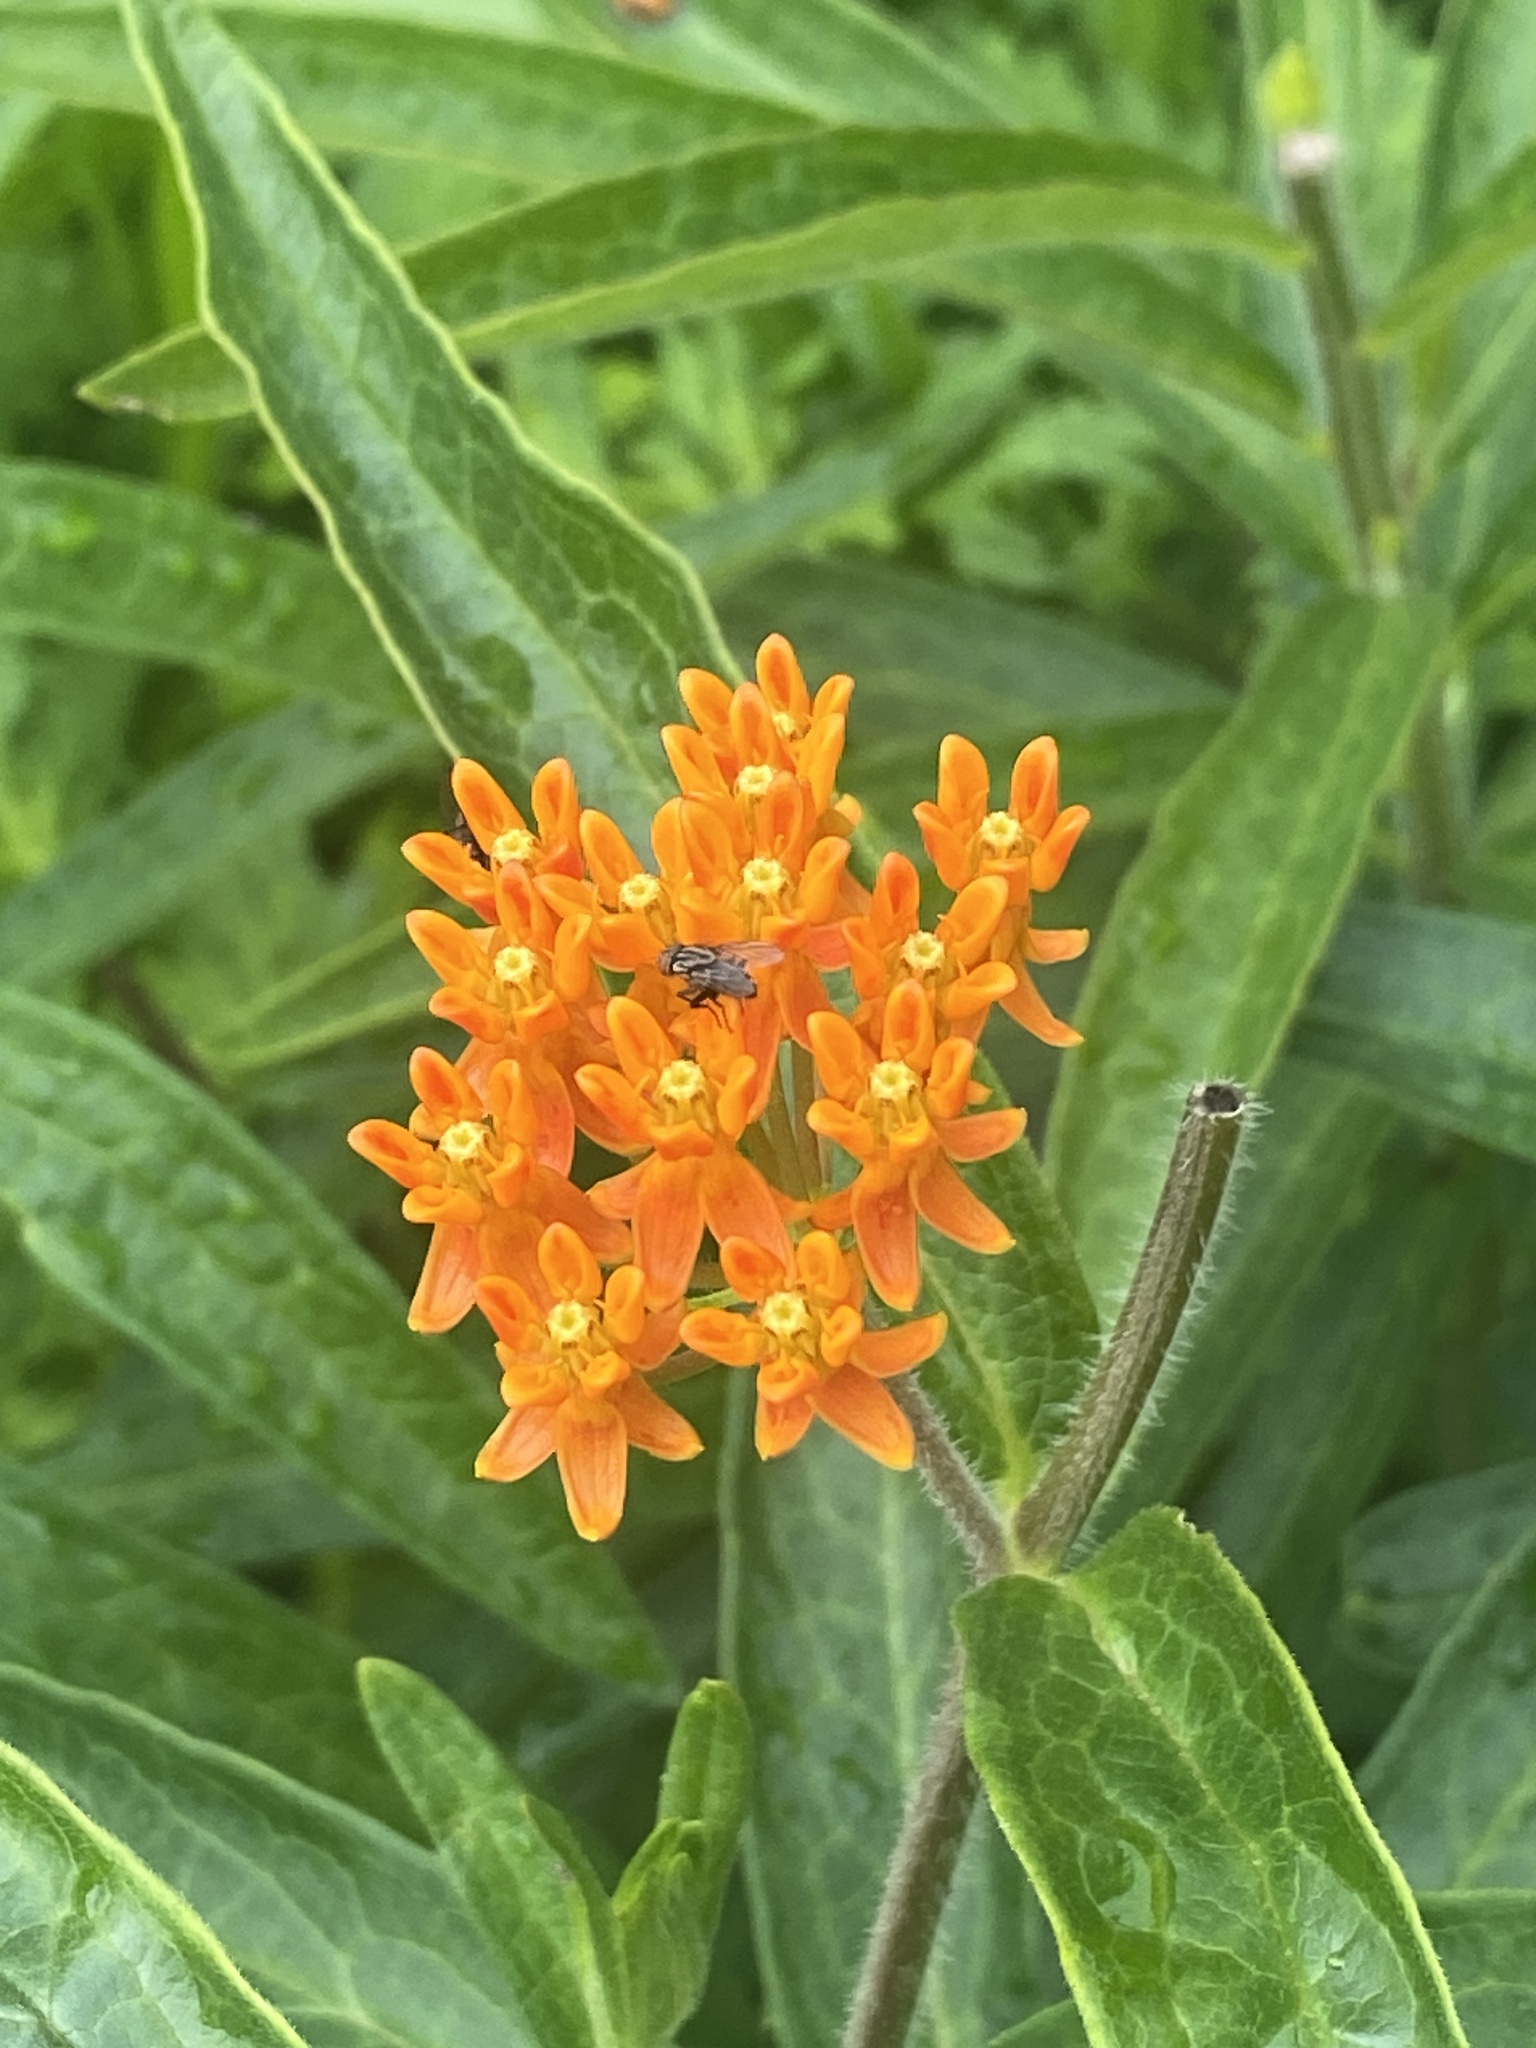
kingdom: Plantae
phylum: Tracheophyta
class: Magnoliopsida
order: Gentianales
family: Apocynaceae
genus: Asclepias
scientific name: Asclepias tuberosa
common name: Butterfly milkweed
